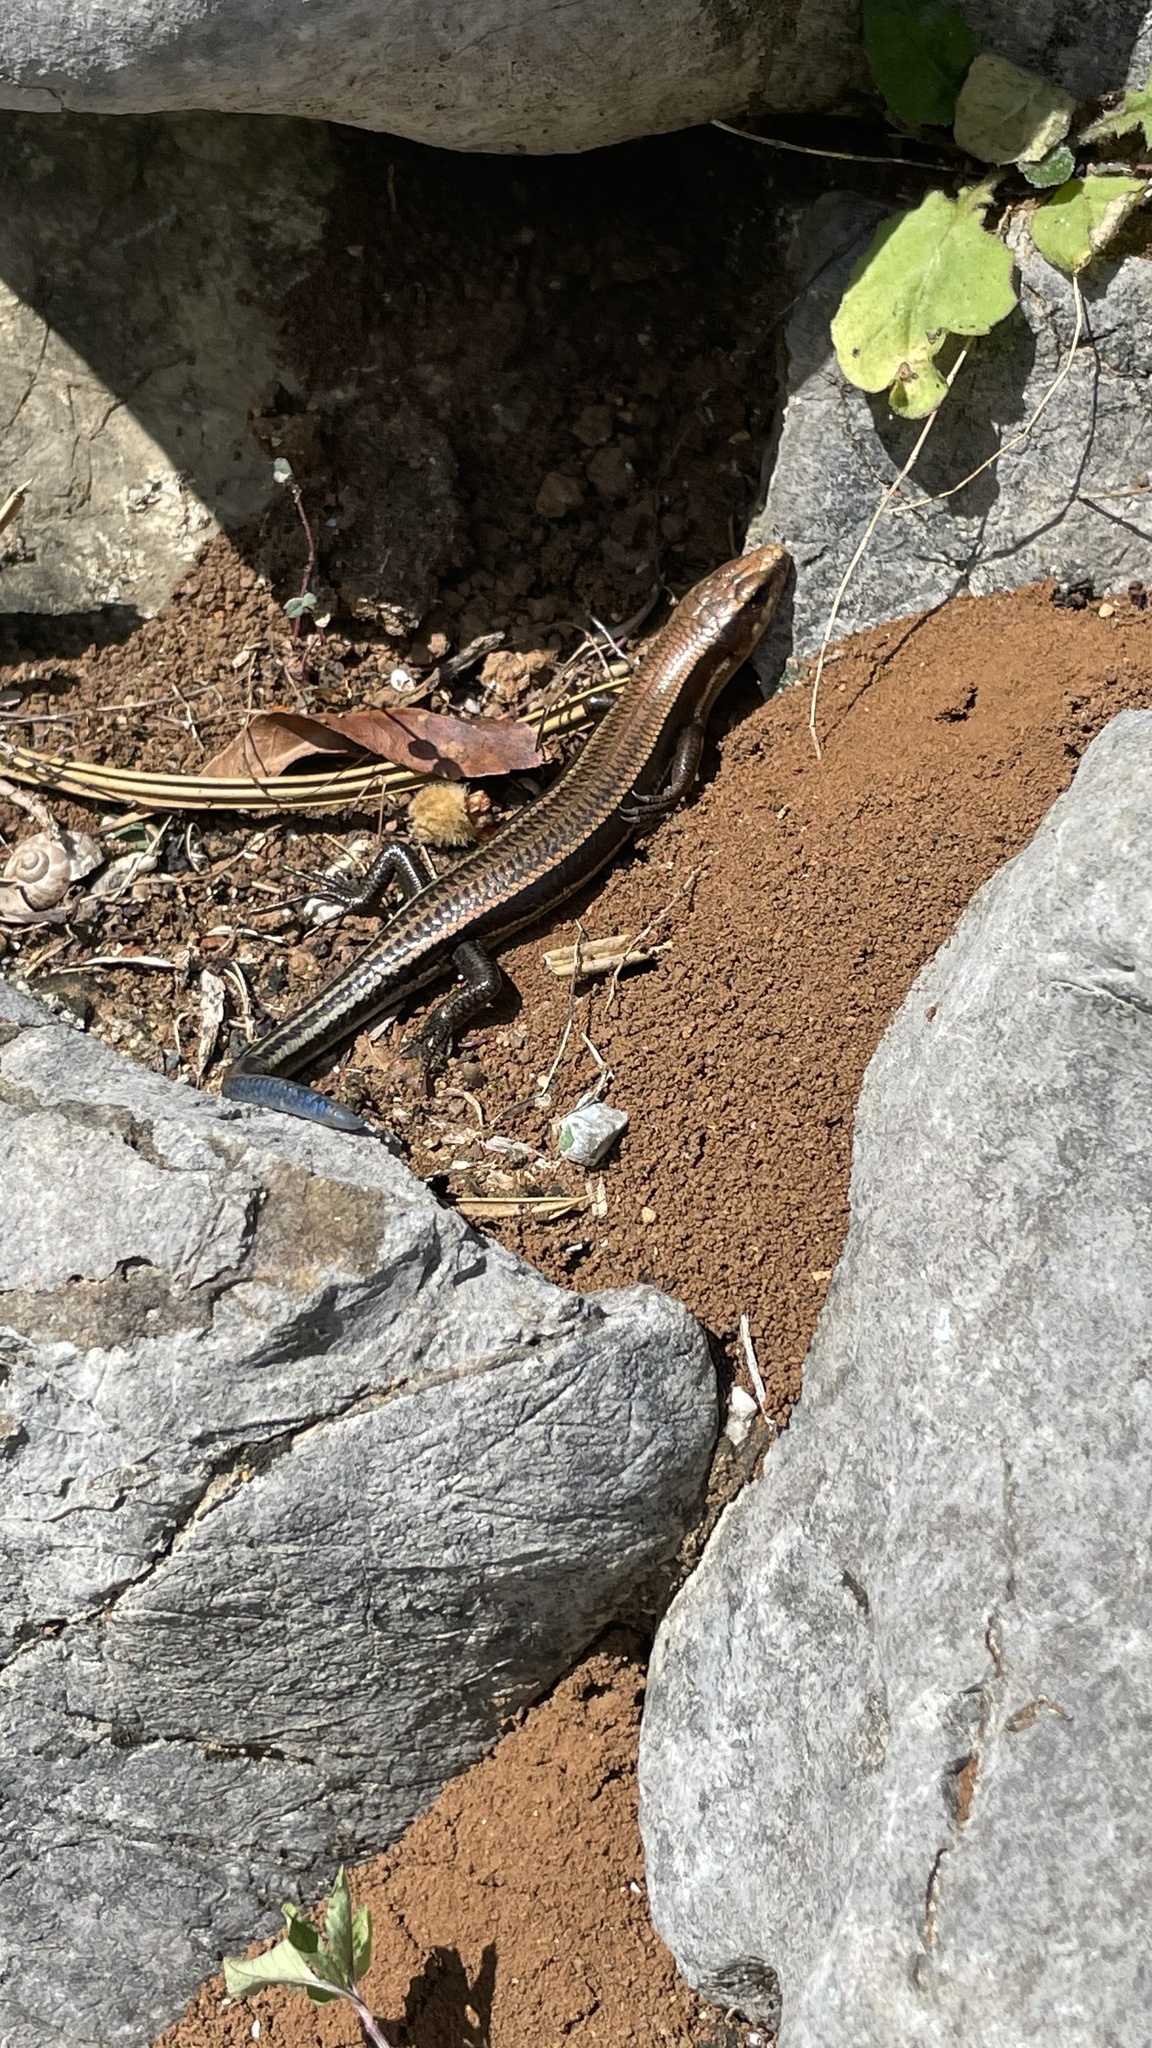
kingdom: Animalia
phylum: Chordata
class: Squamata
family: Scincidae
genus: Plestiodon
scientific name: Plestiodon barbouri
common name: Barbour's eyelid skink
